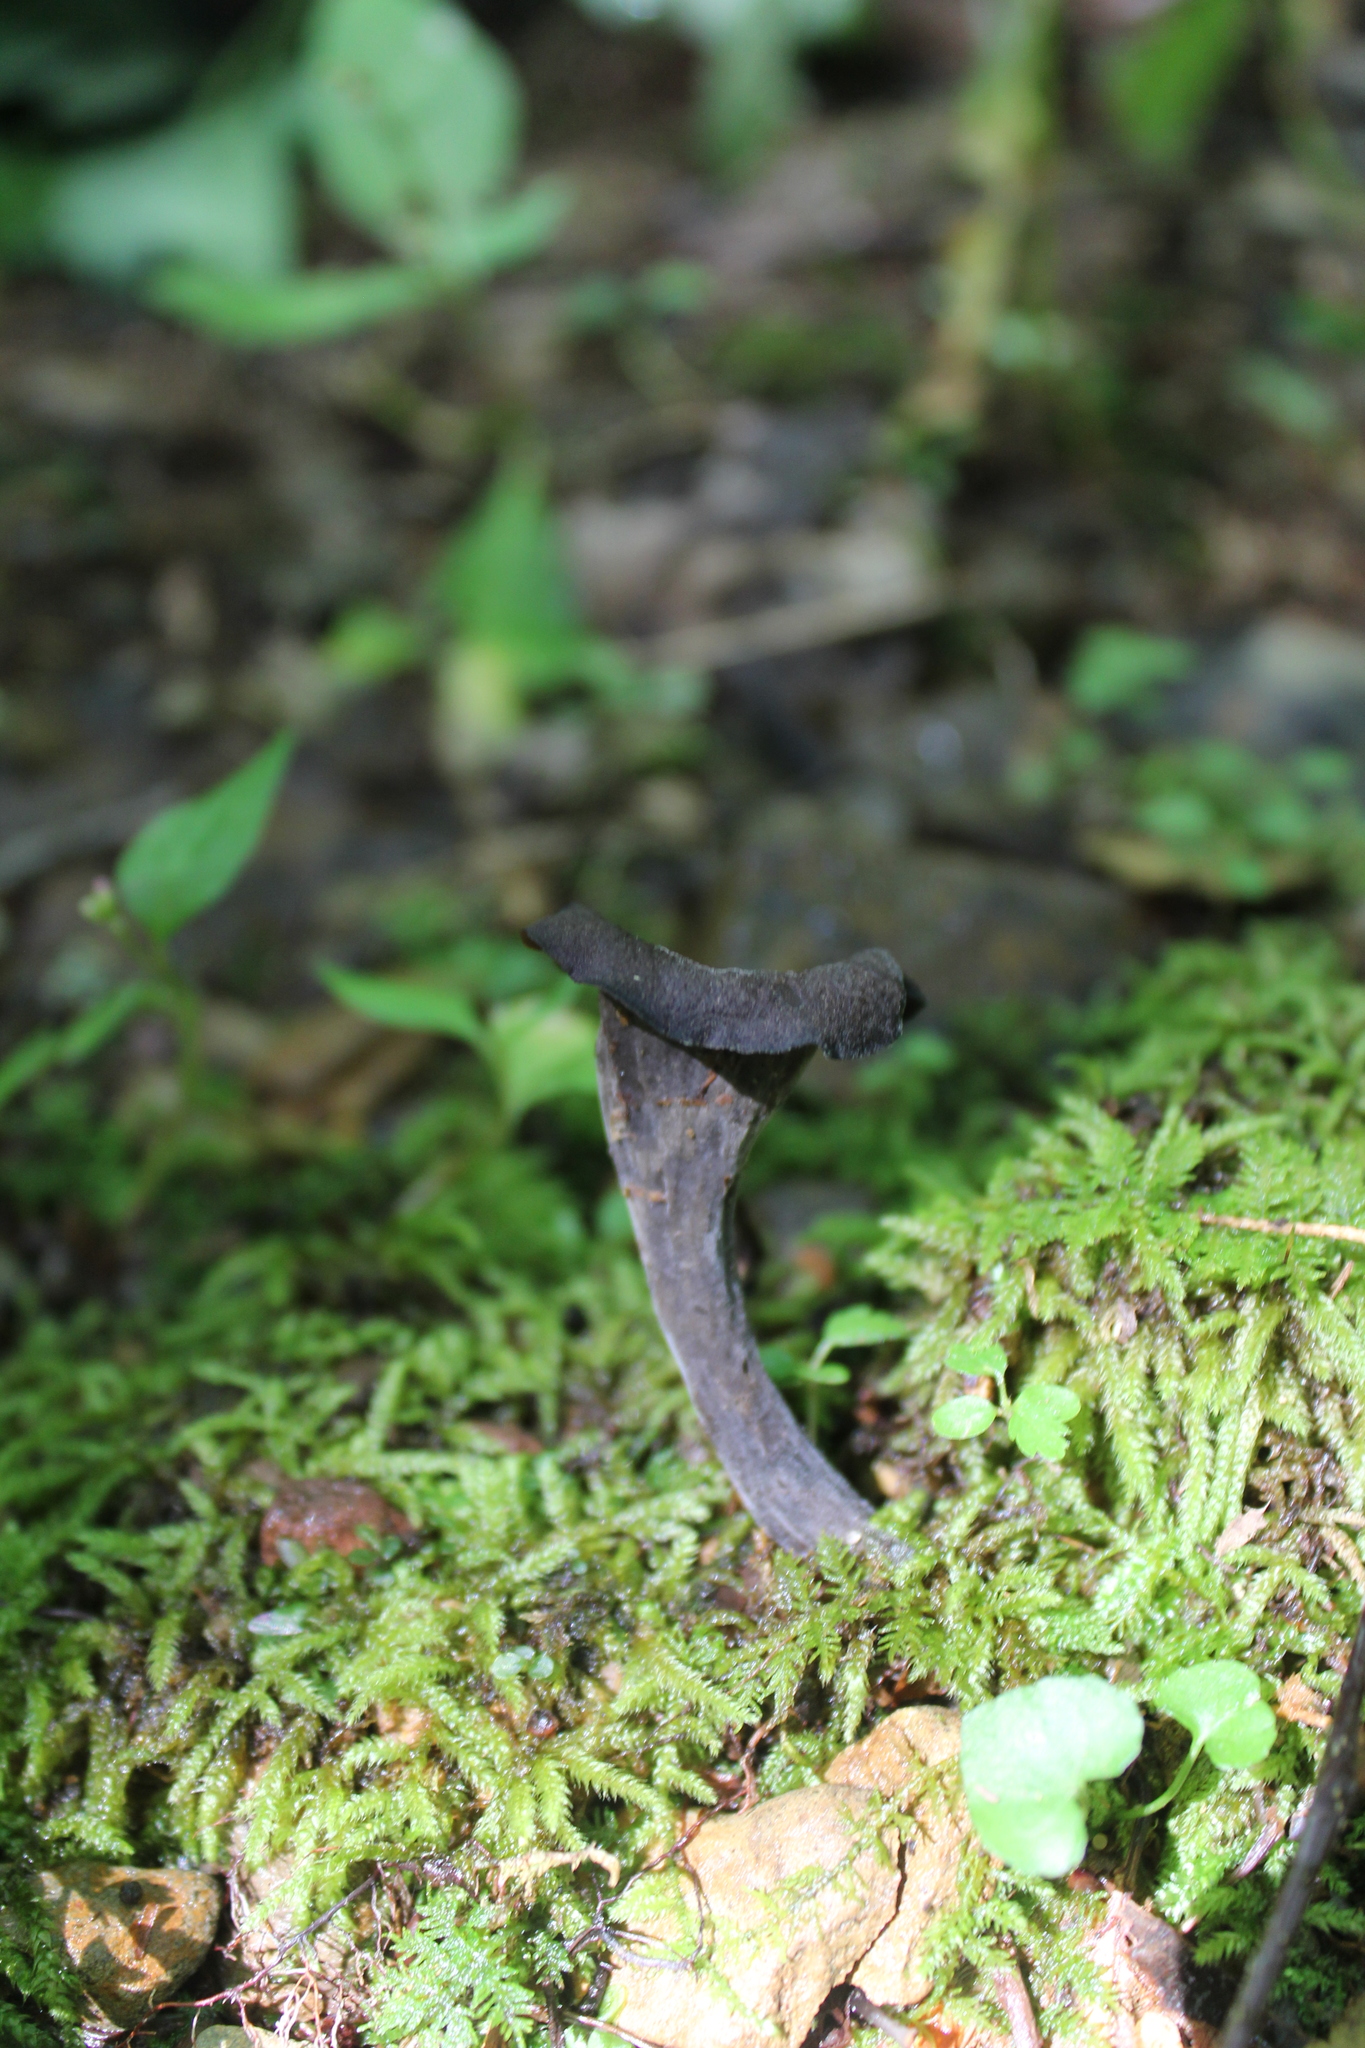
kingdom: Fungi
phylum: Basidiomycota
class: Agaricomycetes
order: Cantharellales
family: Hydnaceae
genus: Craterellus
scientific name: Craterellus cornucopioides
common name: Horn of plenty
